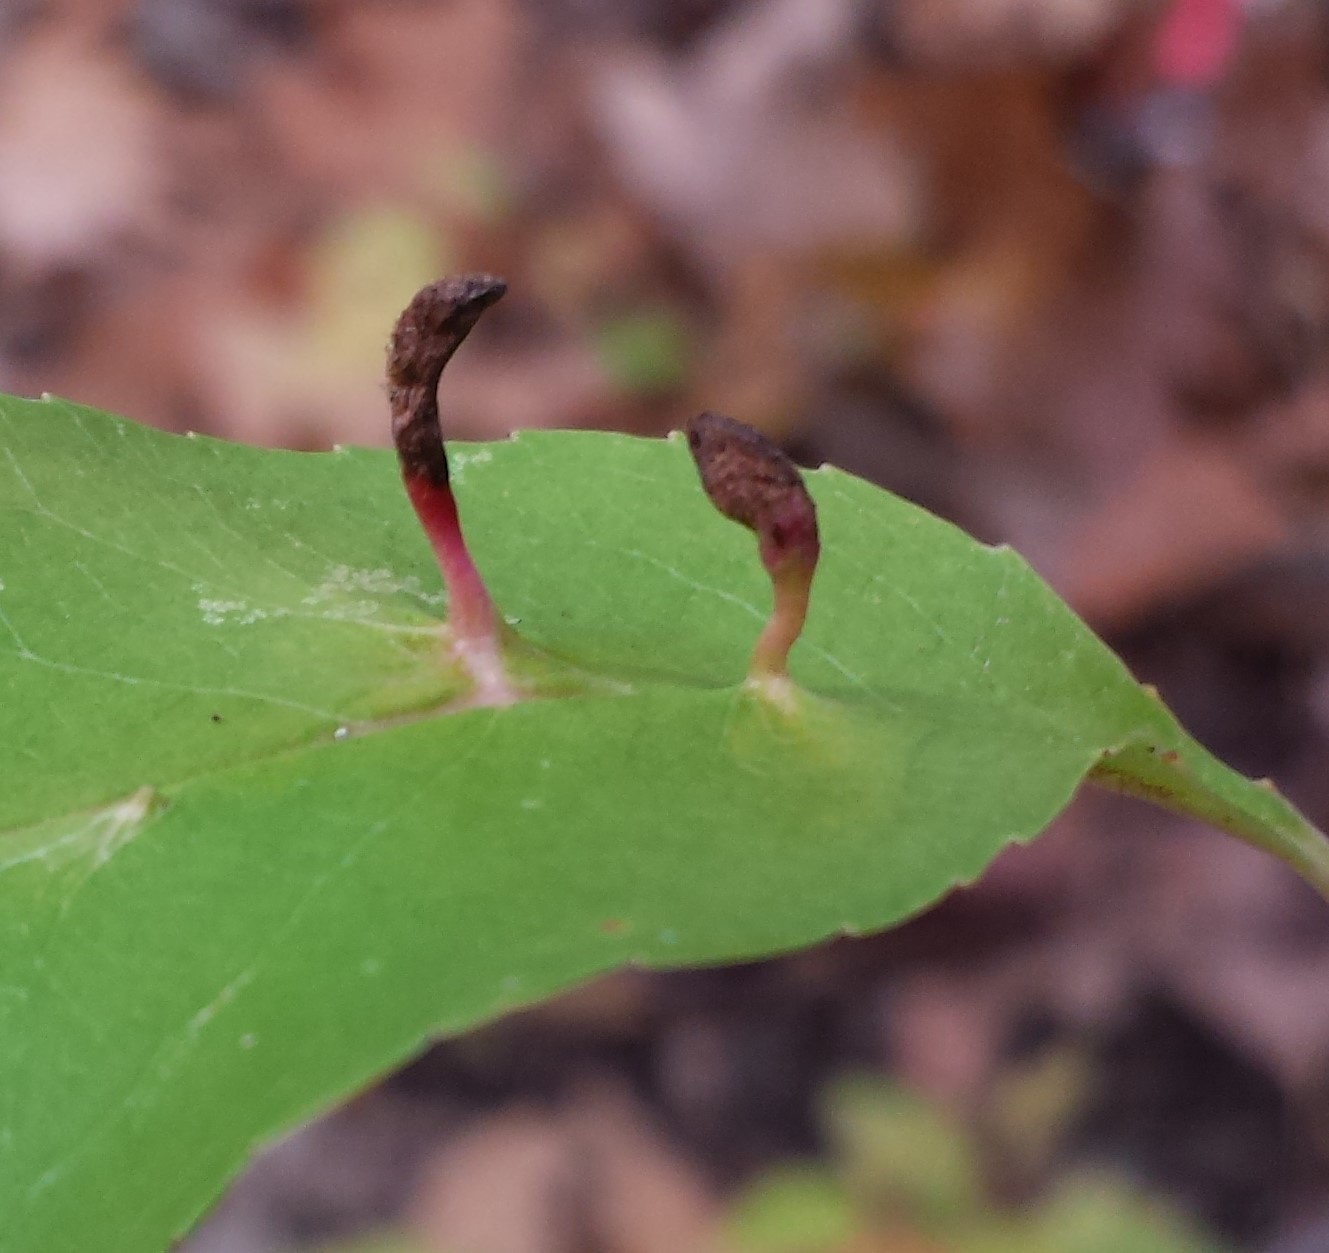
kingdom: Animalia
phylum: Arthropoda
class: Arachnida
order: Trombidiformes
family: Eriophyidae
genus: Eriophyes
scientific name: Eriophyes
